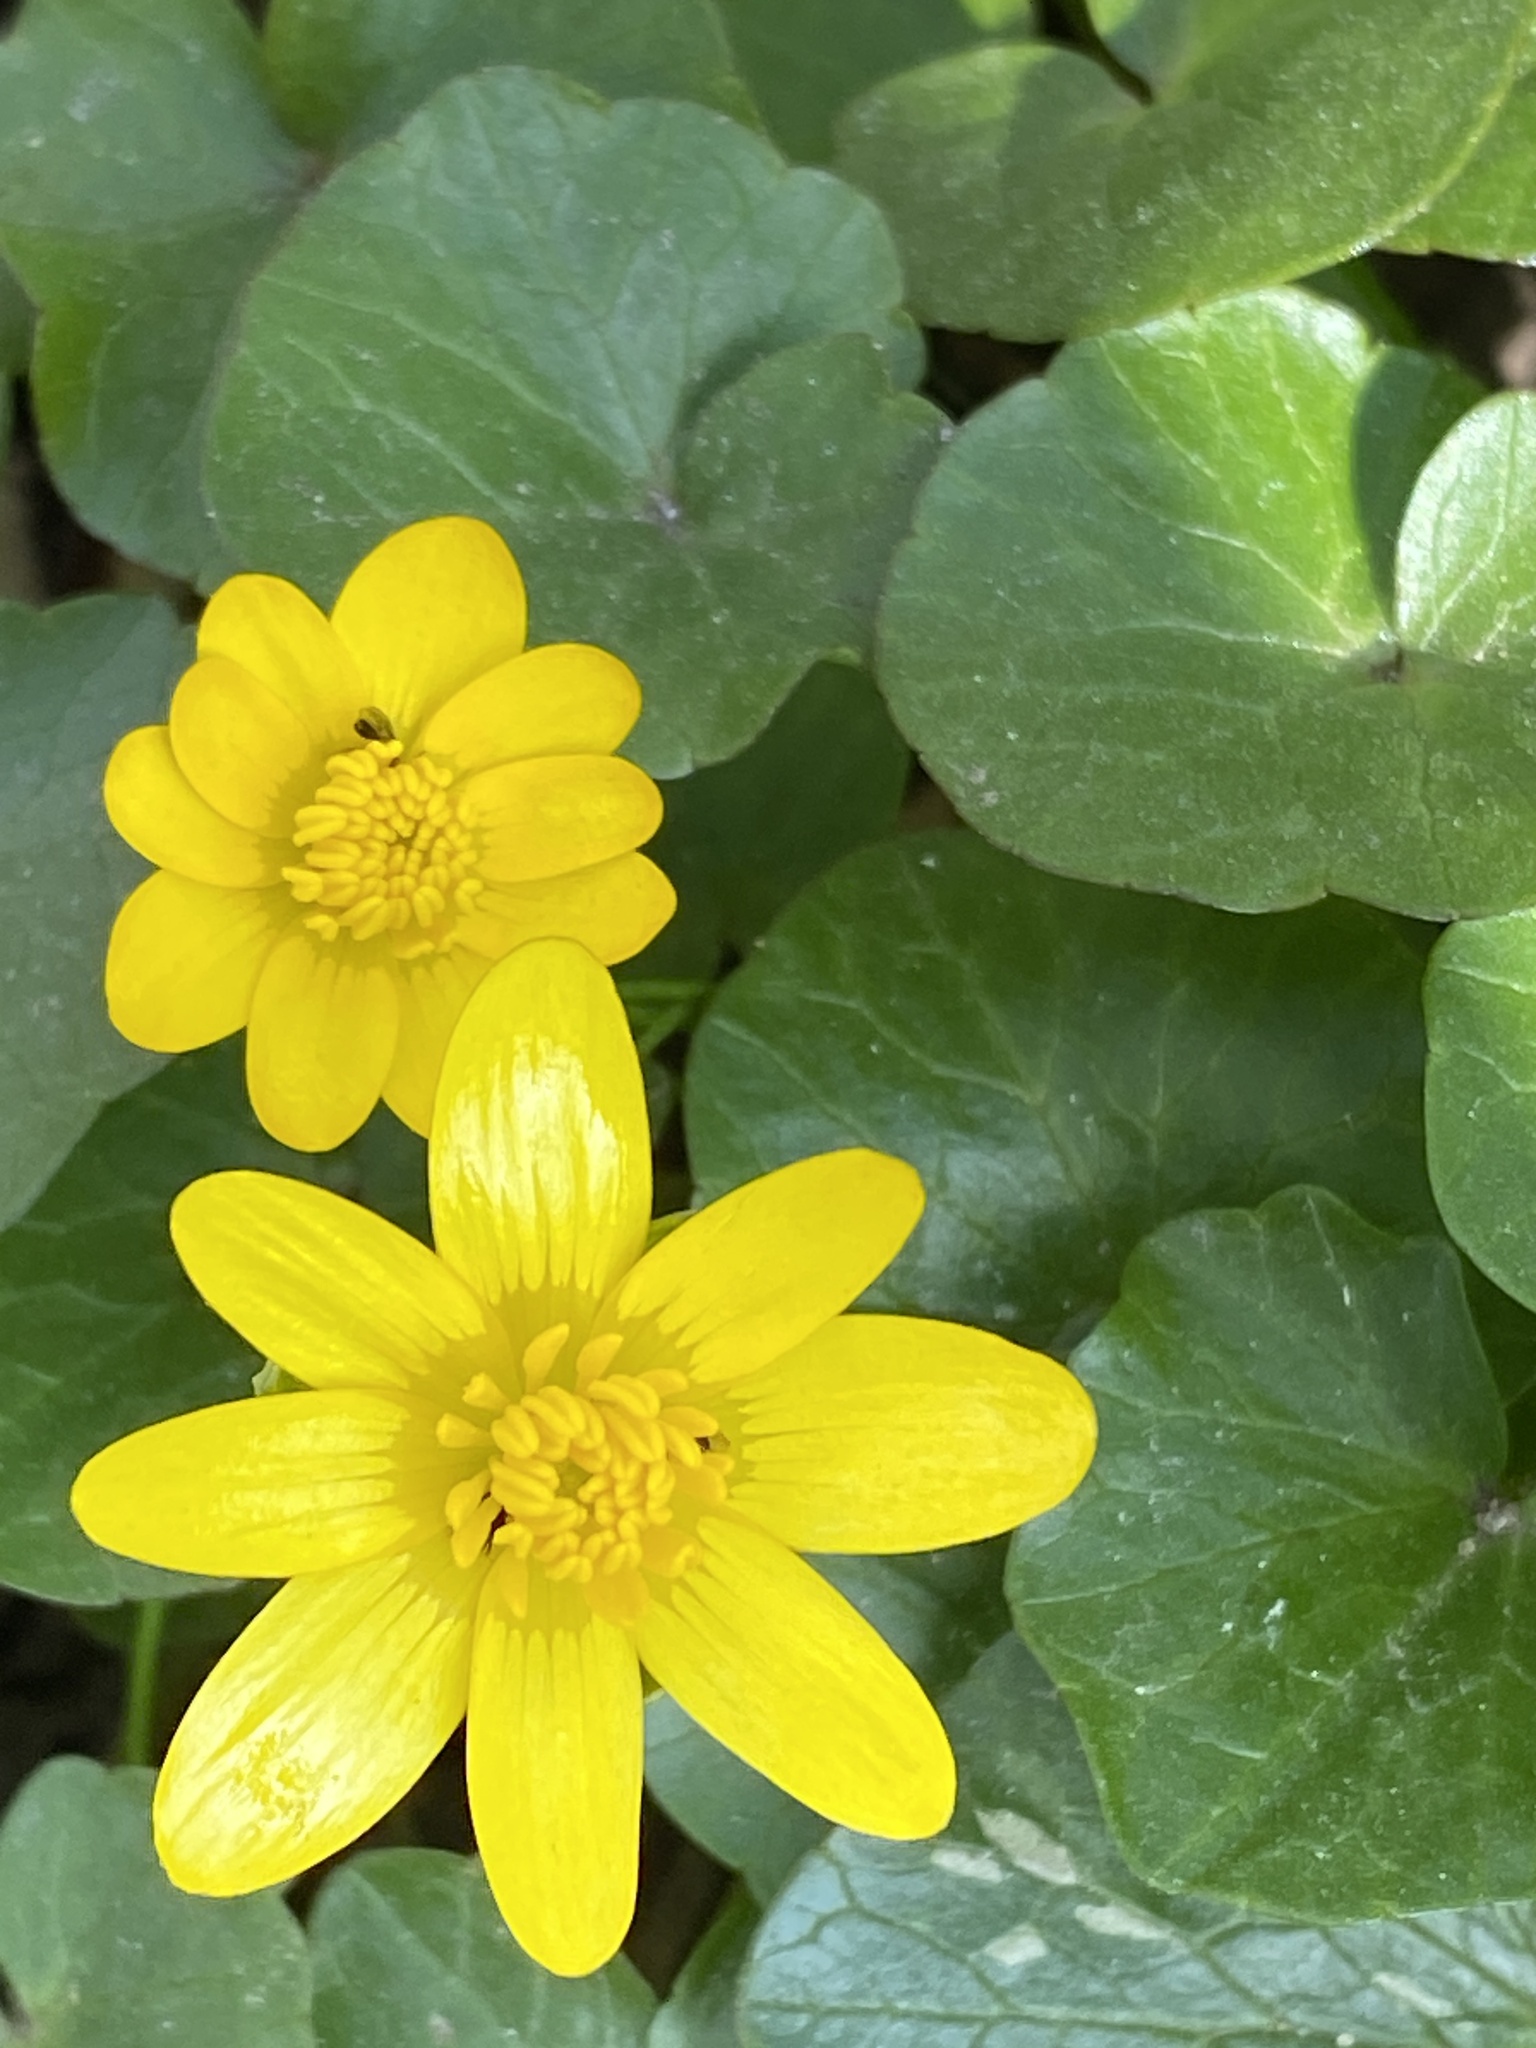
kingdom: Plantae
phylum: Tracheophyta
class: Magnoliopsida
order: Ranunculales
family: Ranunculaceae
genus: Ficaria
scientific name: Ficaria verna
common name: Lesser celandine
